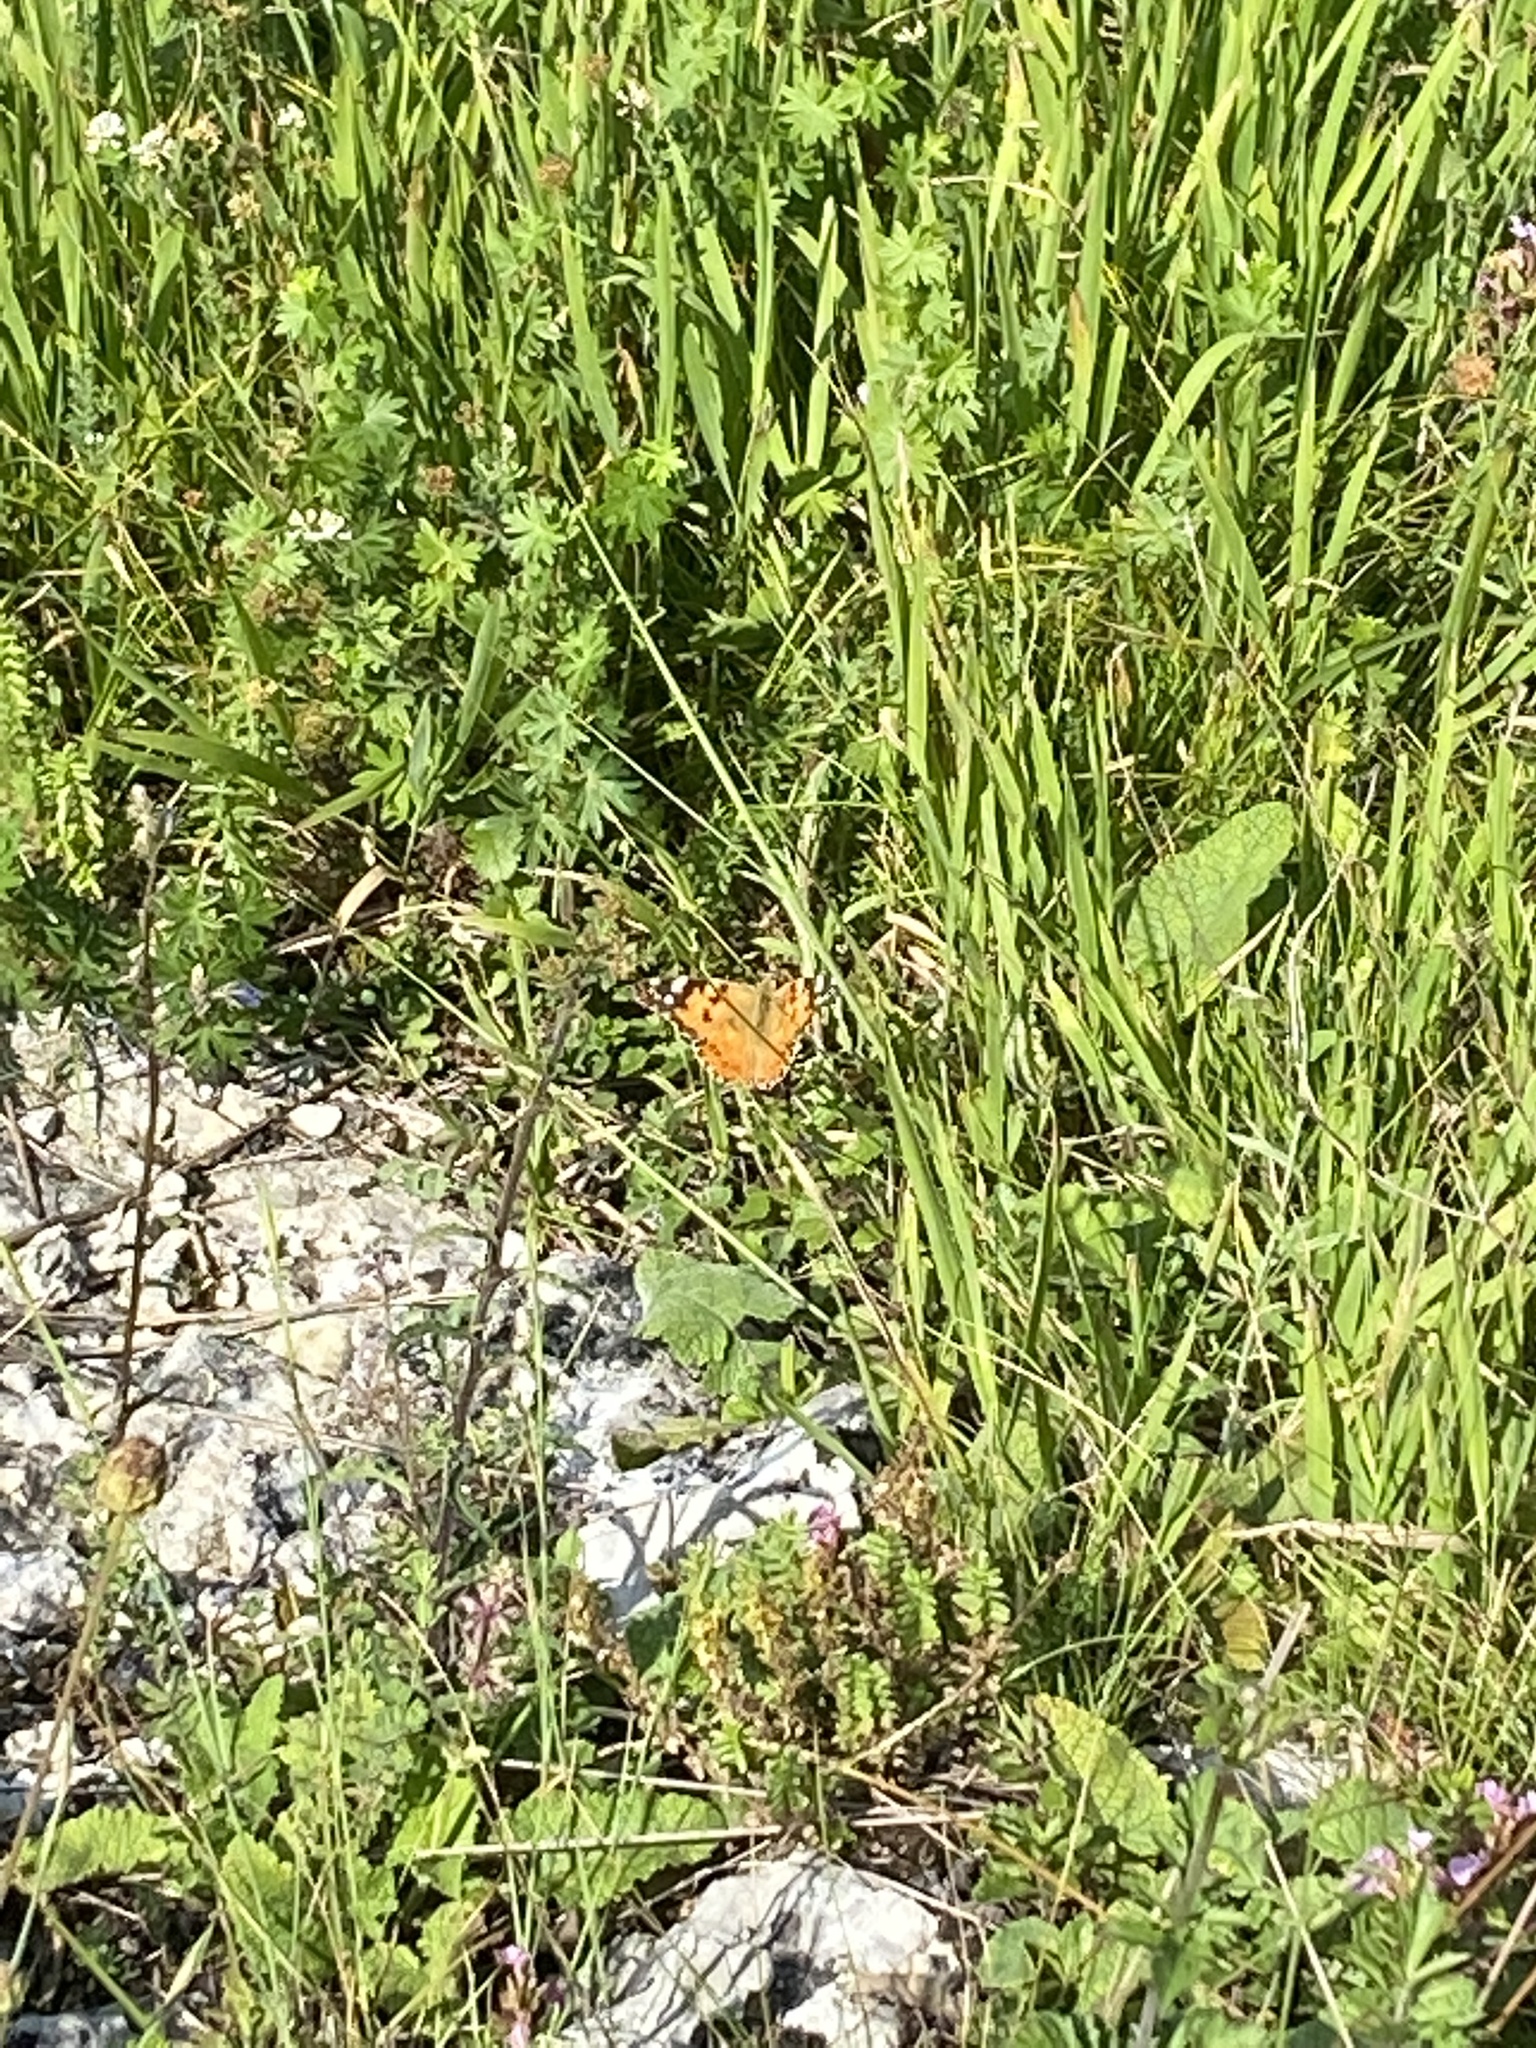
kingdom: Animalia
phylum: Arthropoda
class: Insecta
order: Lepidoptera
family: Nymphalidae
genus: Vanessa
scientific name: Vanessa cardui
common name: Painted lady
